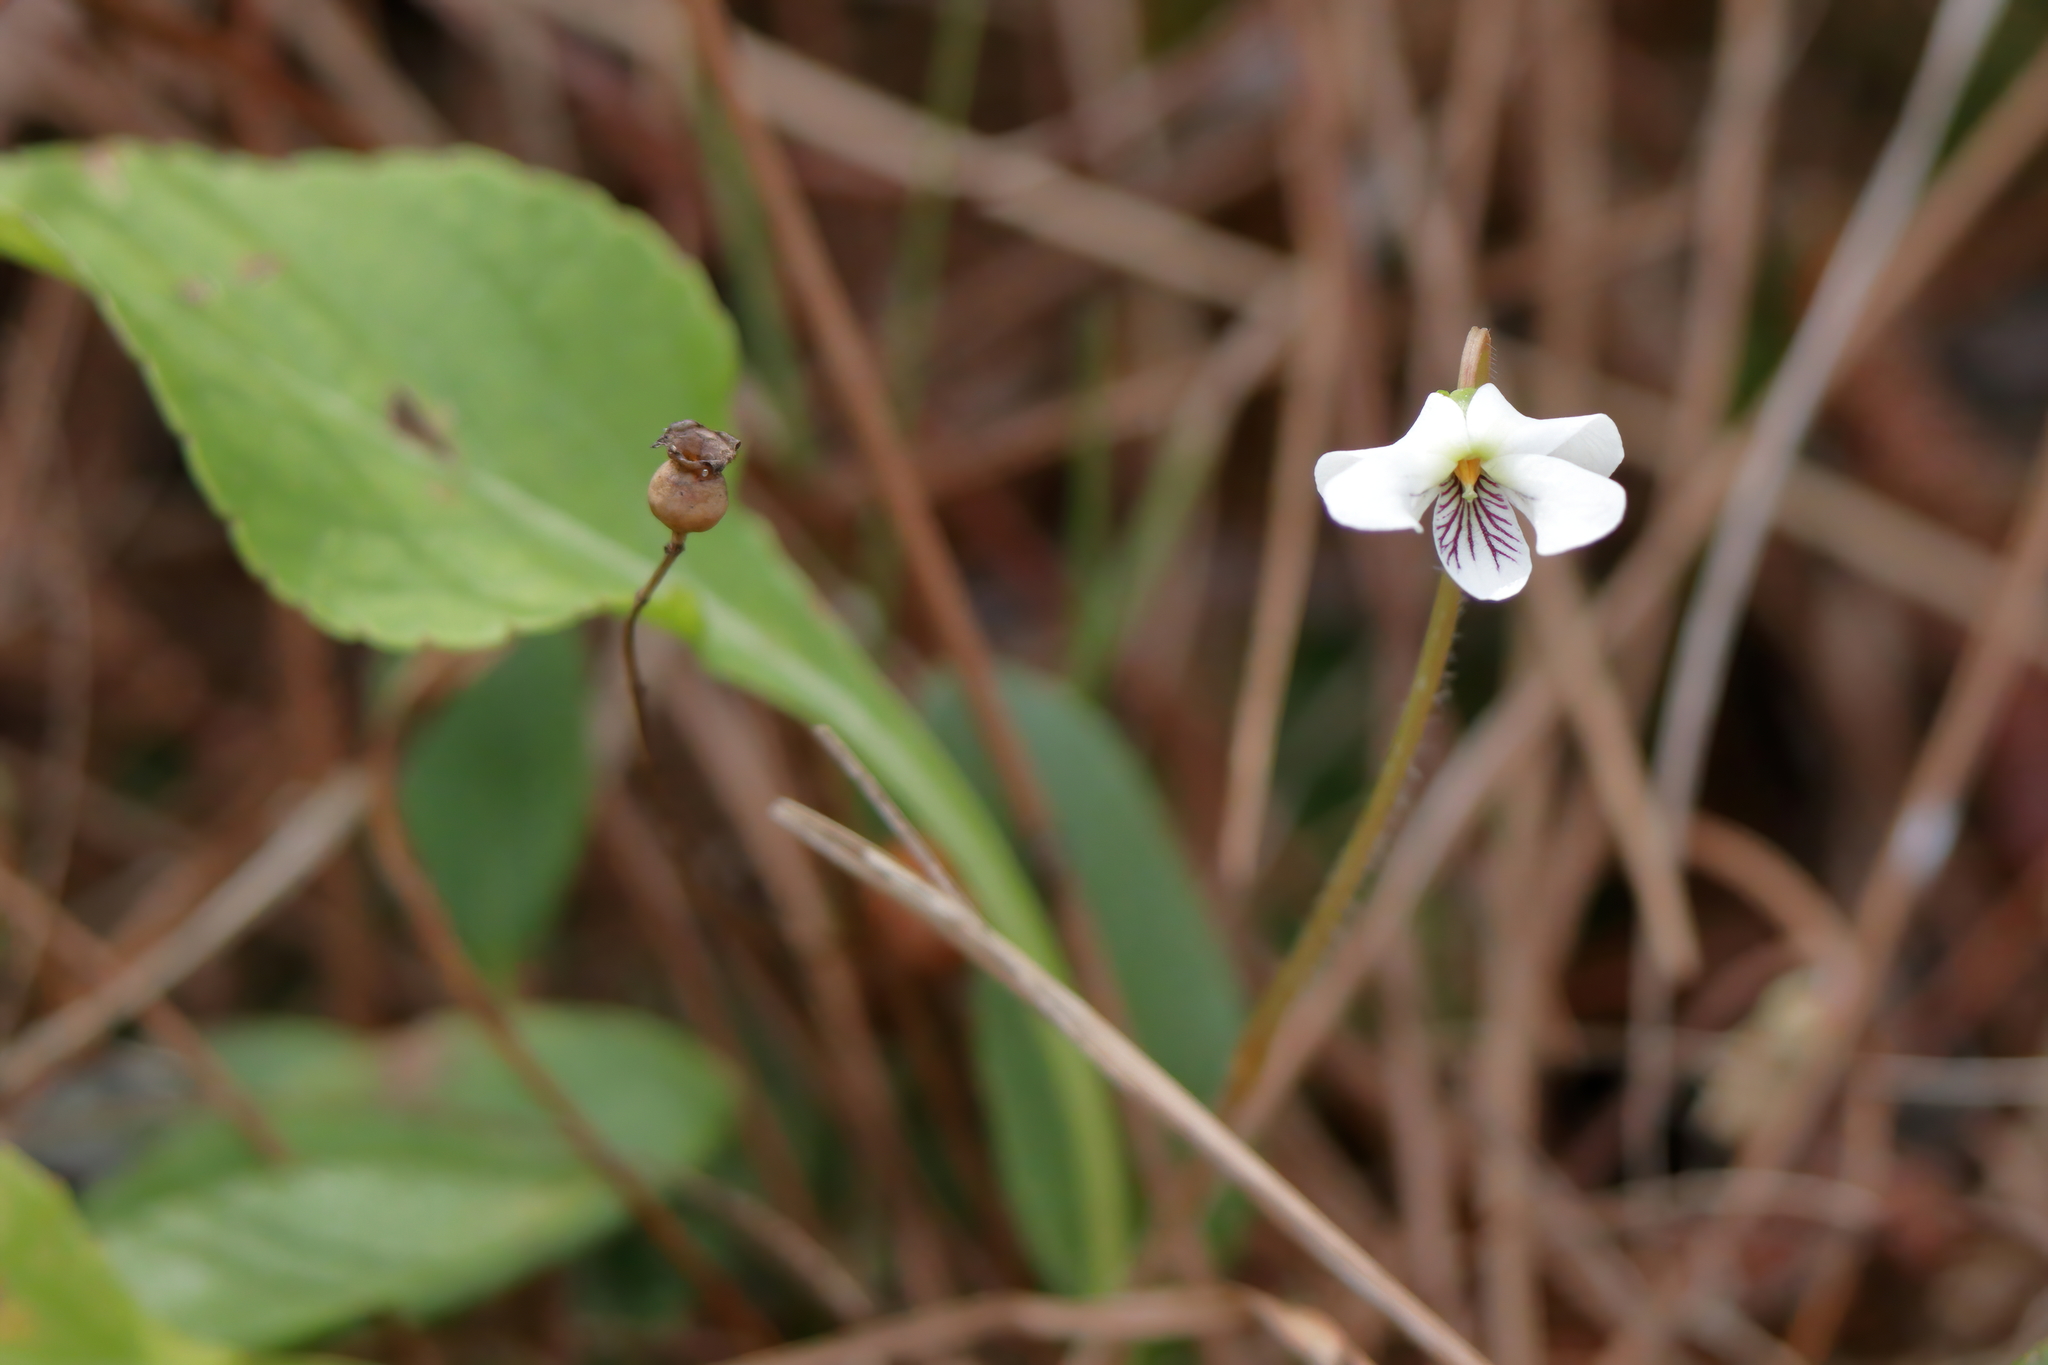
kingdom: Plantae
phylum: Tracheophyta
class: Magnoliopsida
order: Malpighiales
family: Violaceae
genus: Viola
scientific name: Viola primulifolia
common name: Primrose-leaf violet
